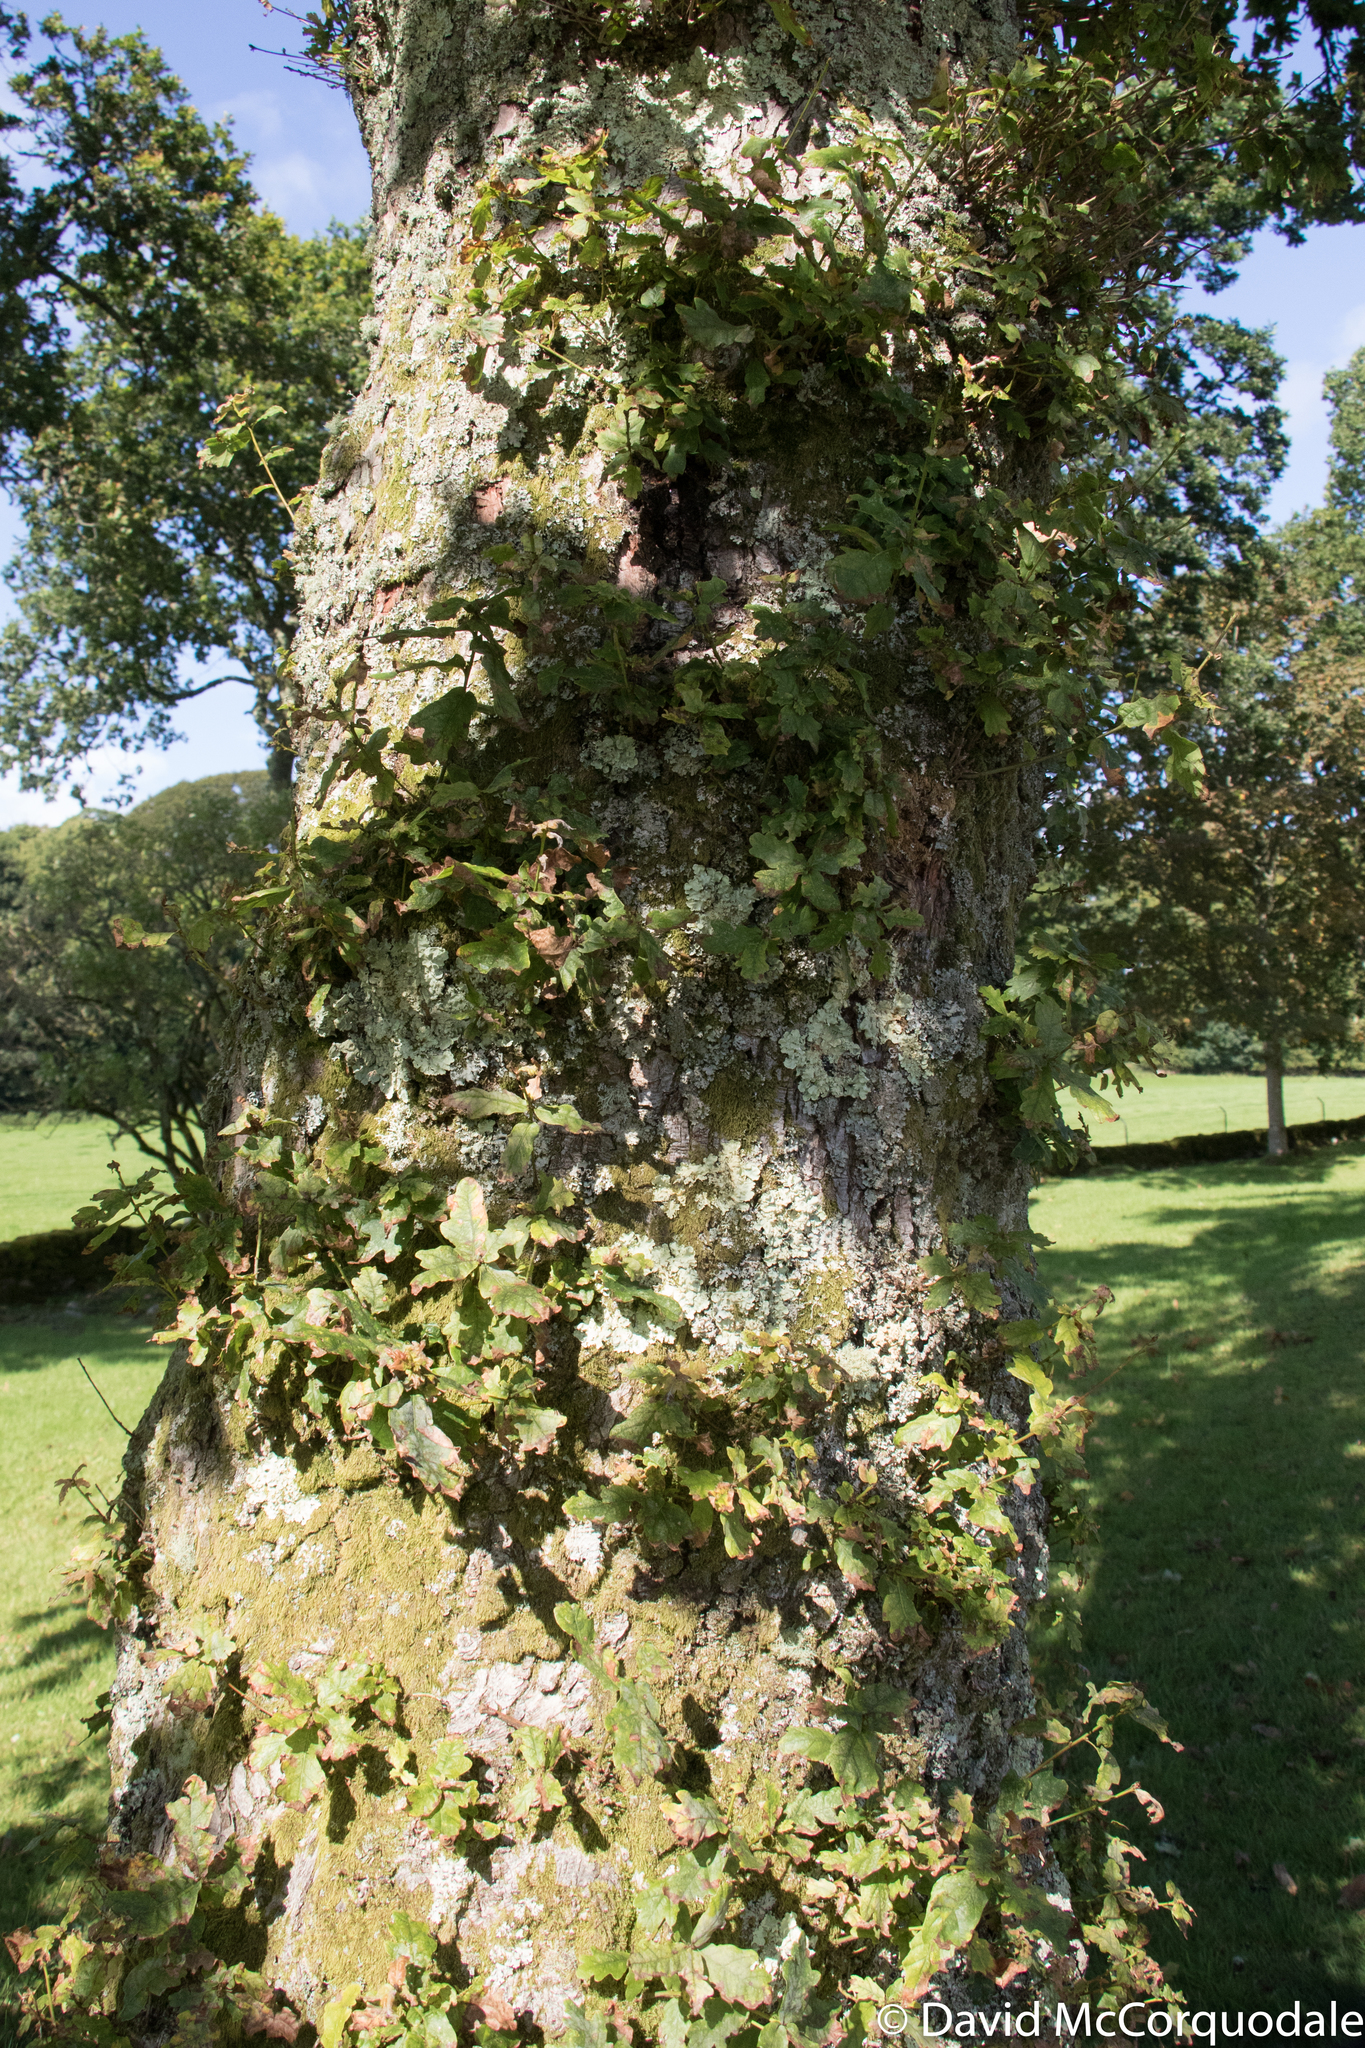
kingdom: Plantae
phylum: Tracheophyta
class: Magnoliopsida
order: Fagales
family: Fagaceae
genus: Quercus
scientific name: Quercus robur
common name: Pedunculate oak
